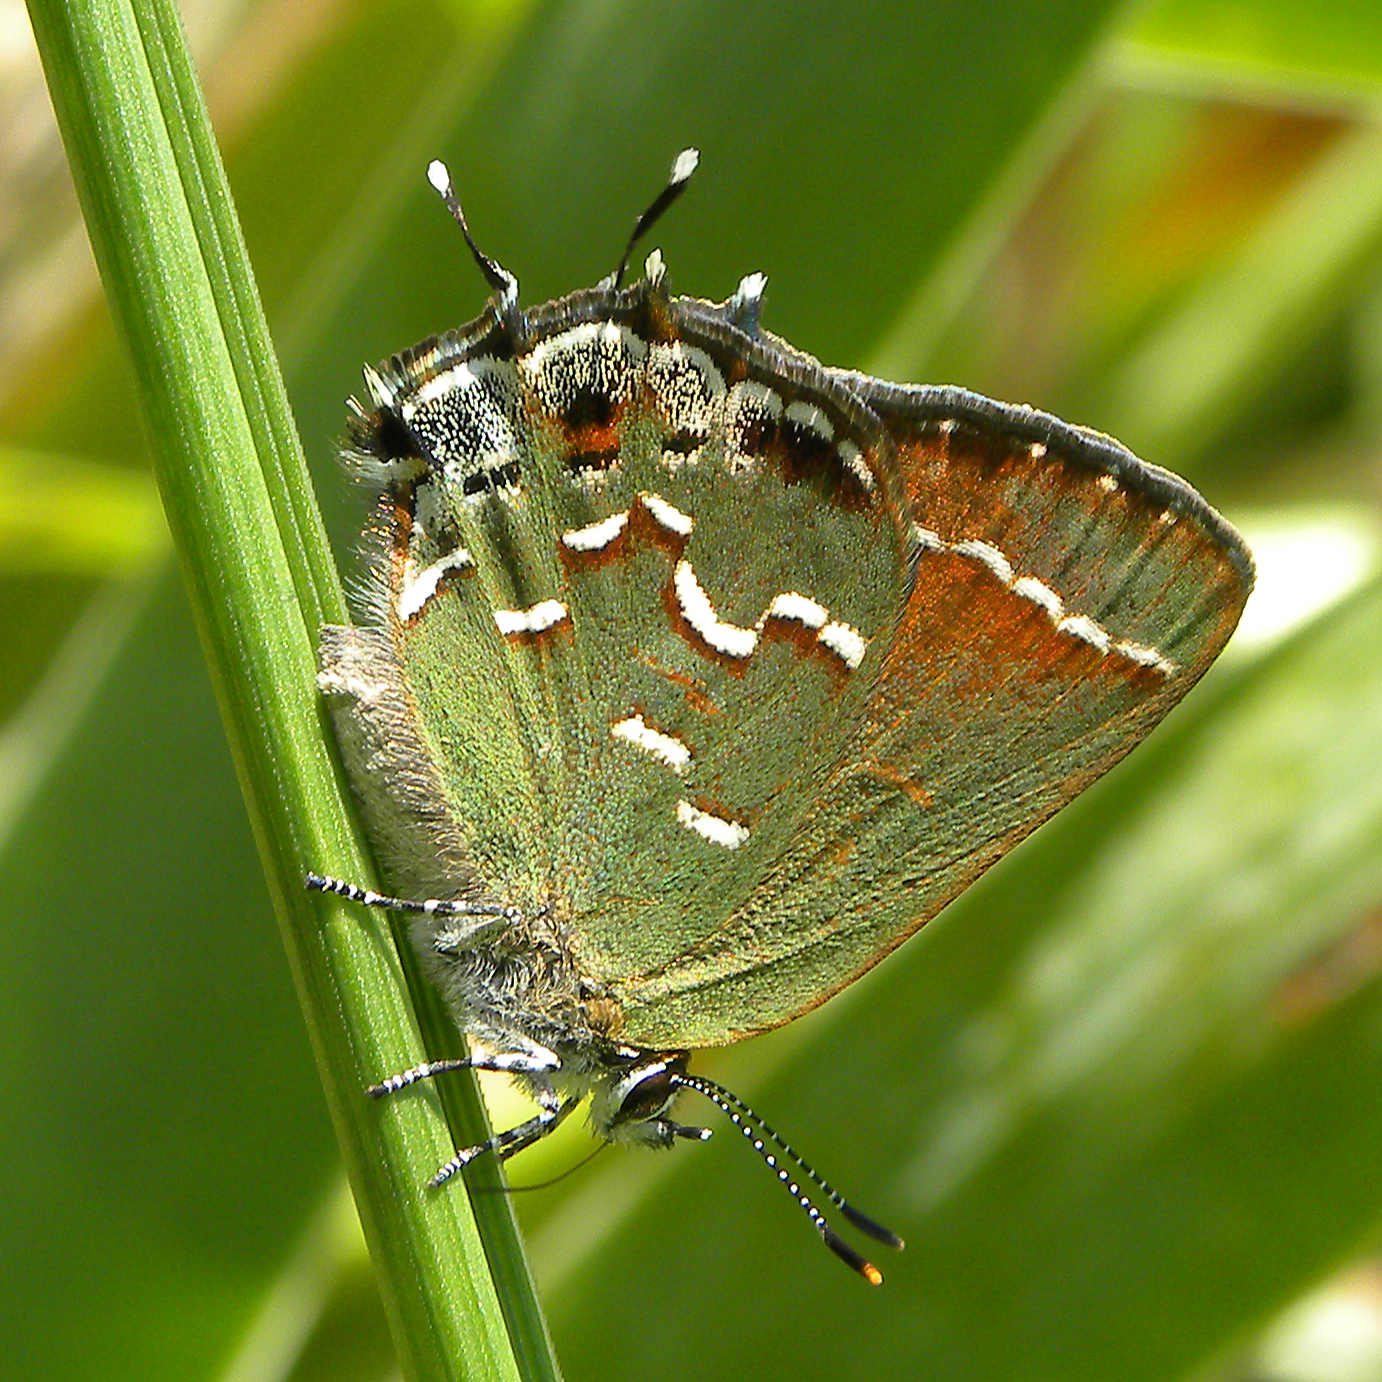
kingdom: Animalia
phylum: Arthropoda
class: Insecta
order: Lepidoptera
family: Lycaenidae
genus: Mitoura
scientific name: Mitoura gryneus
